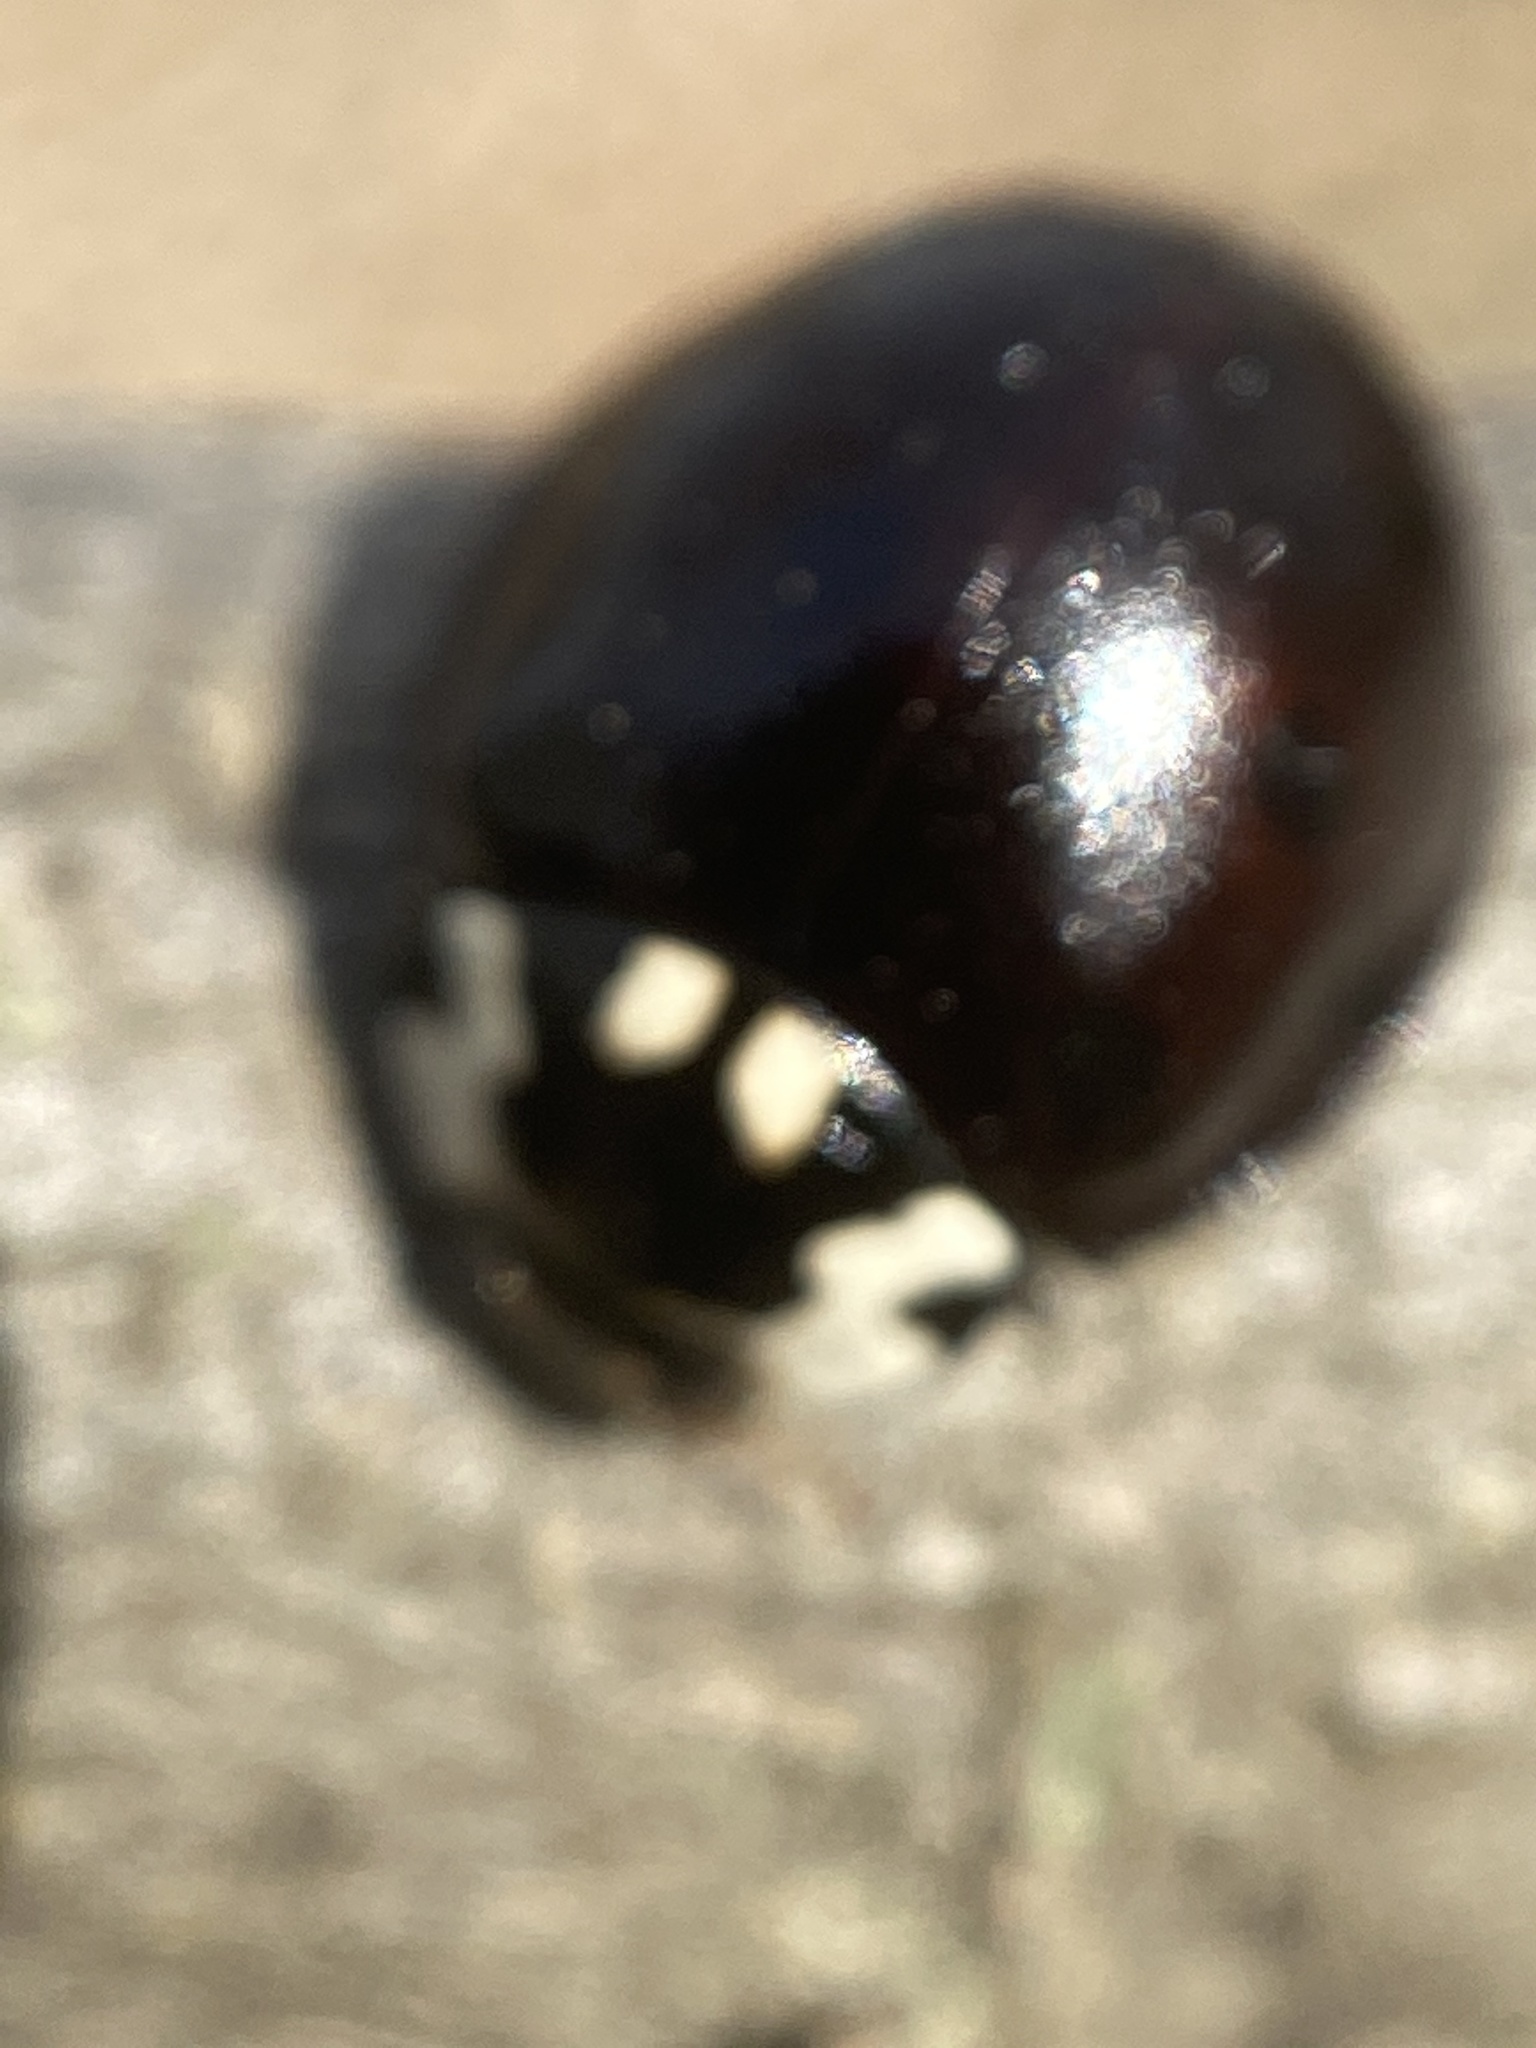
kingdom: Animalia
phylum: Arthropoda
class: Insecta
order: Coleoptera
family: Coccinellidae
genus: Anatis
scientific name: Anatis labiculata
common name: Fifteen-spotted lady beetle
